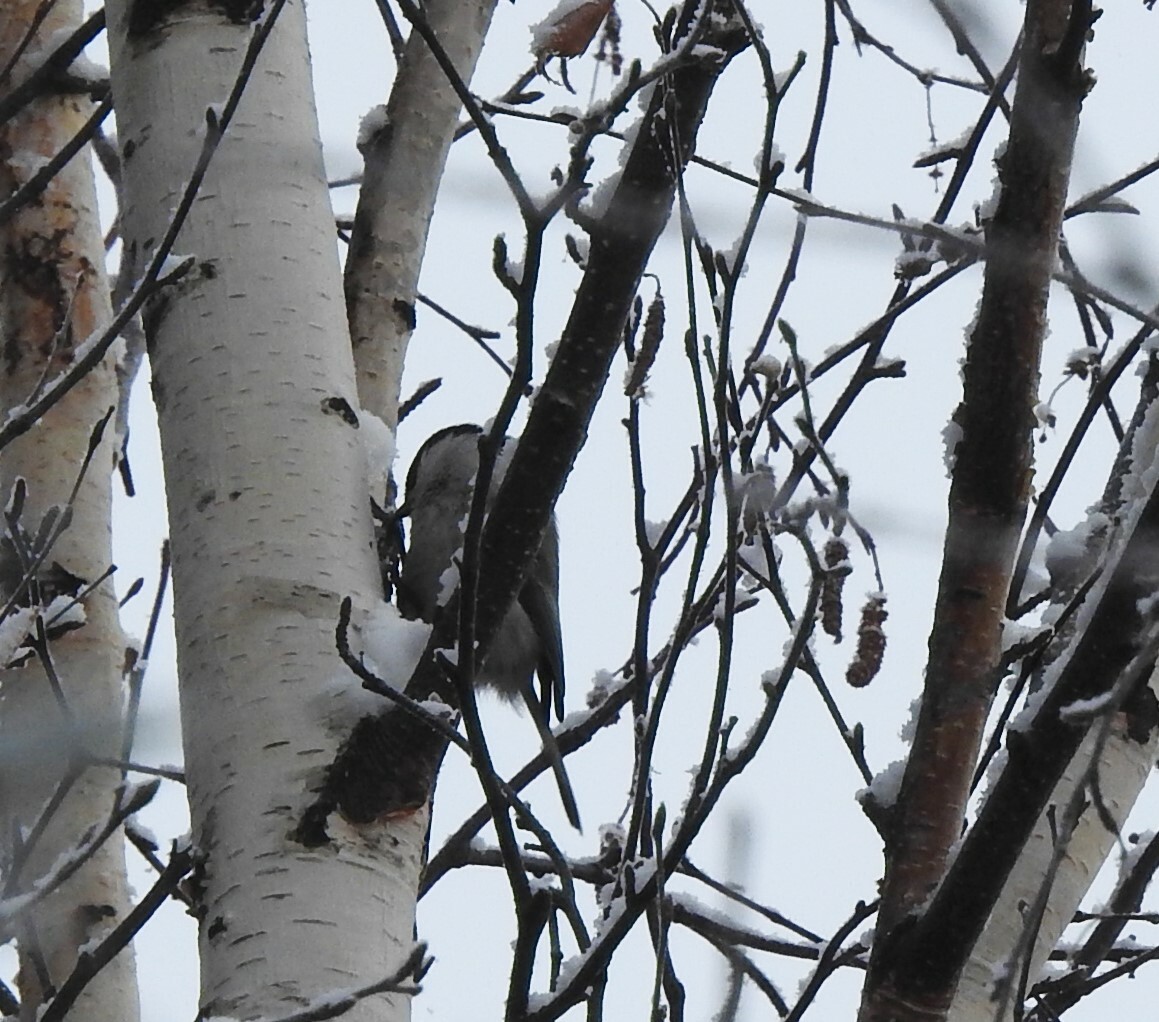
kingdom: Animalia
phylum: Chordata
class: Aves
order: Passeriformes
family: Paridae
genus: Poecile
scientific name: Poecile montanus
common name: Willow tit
